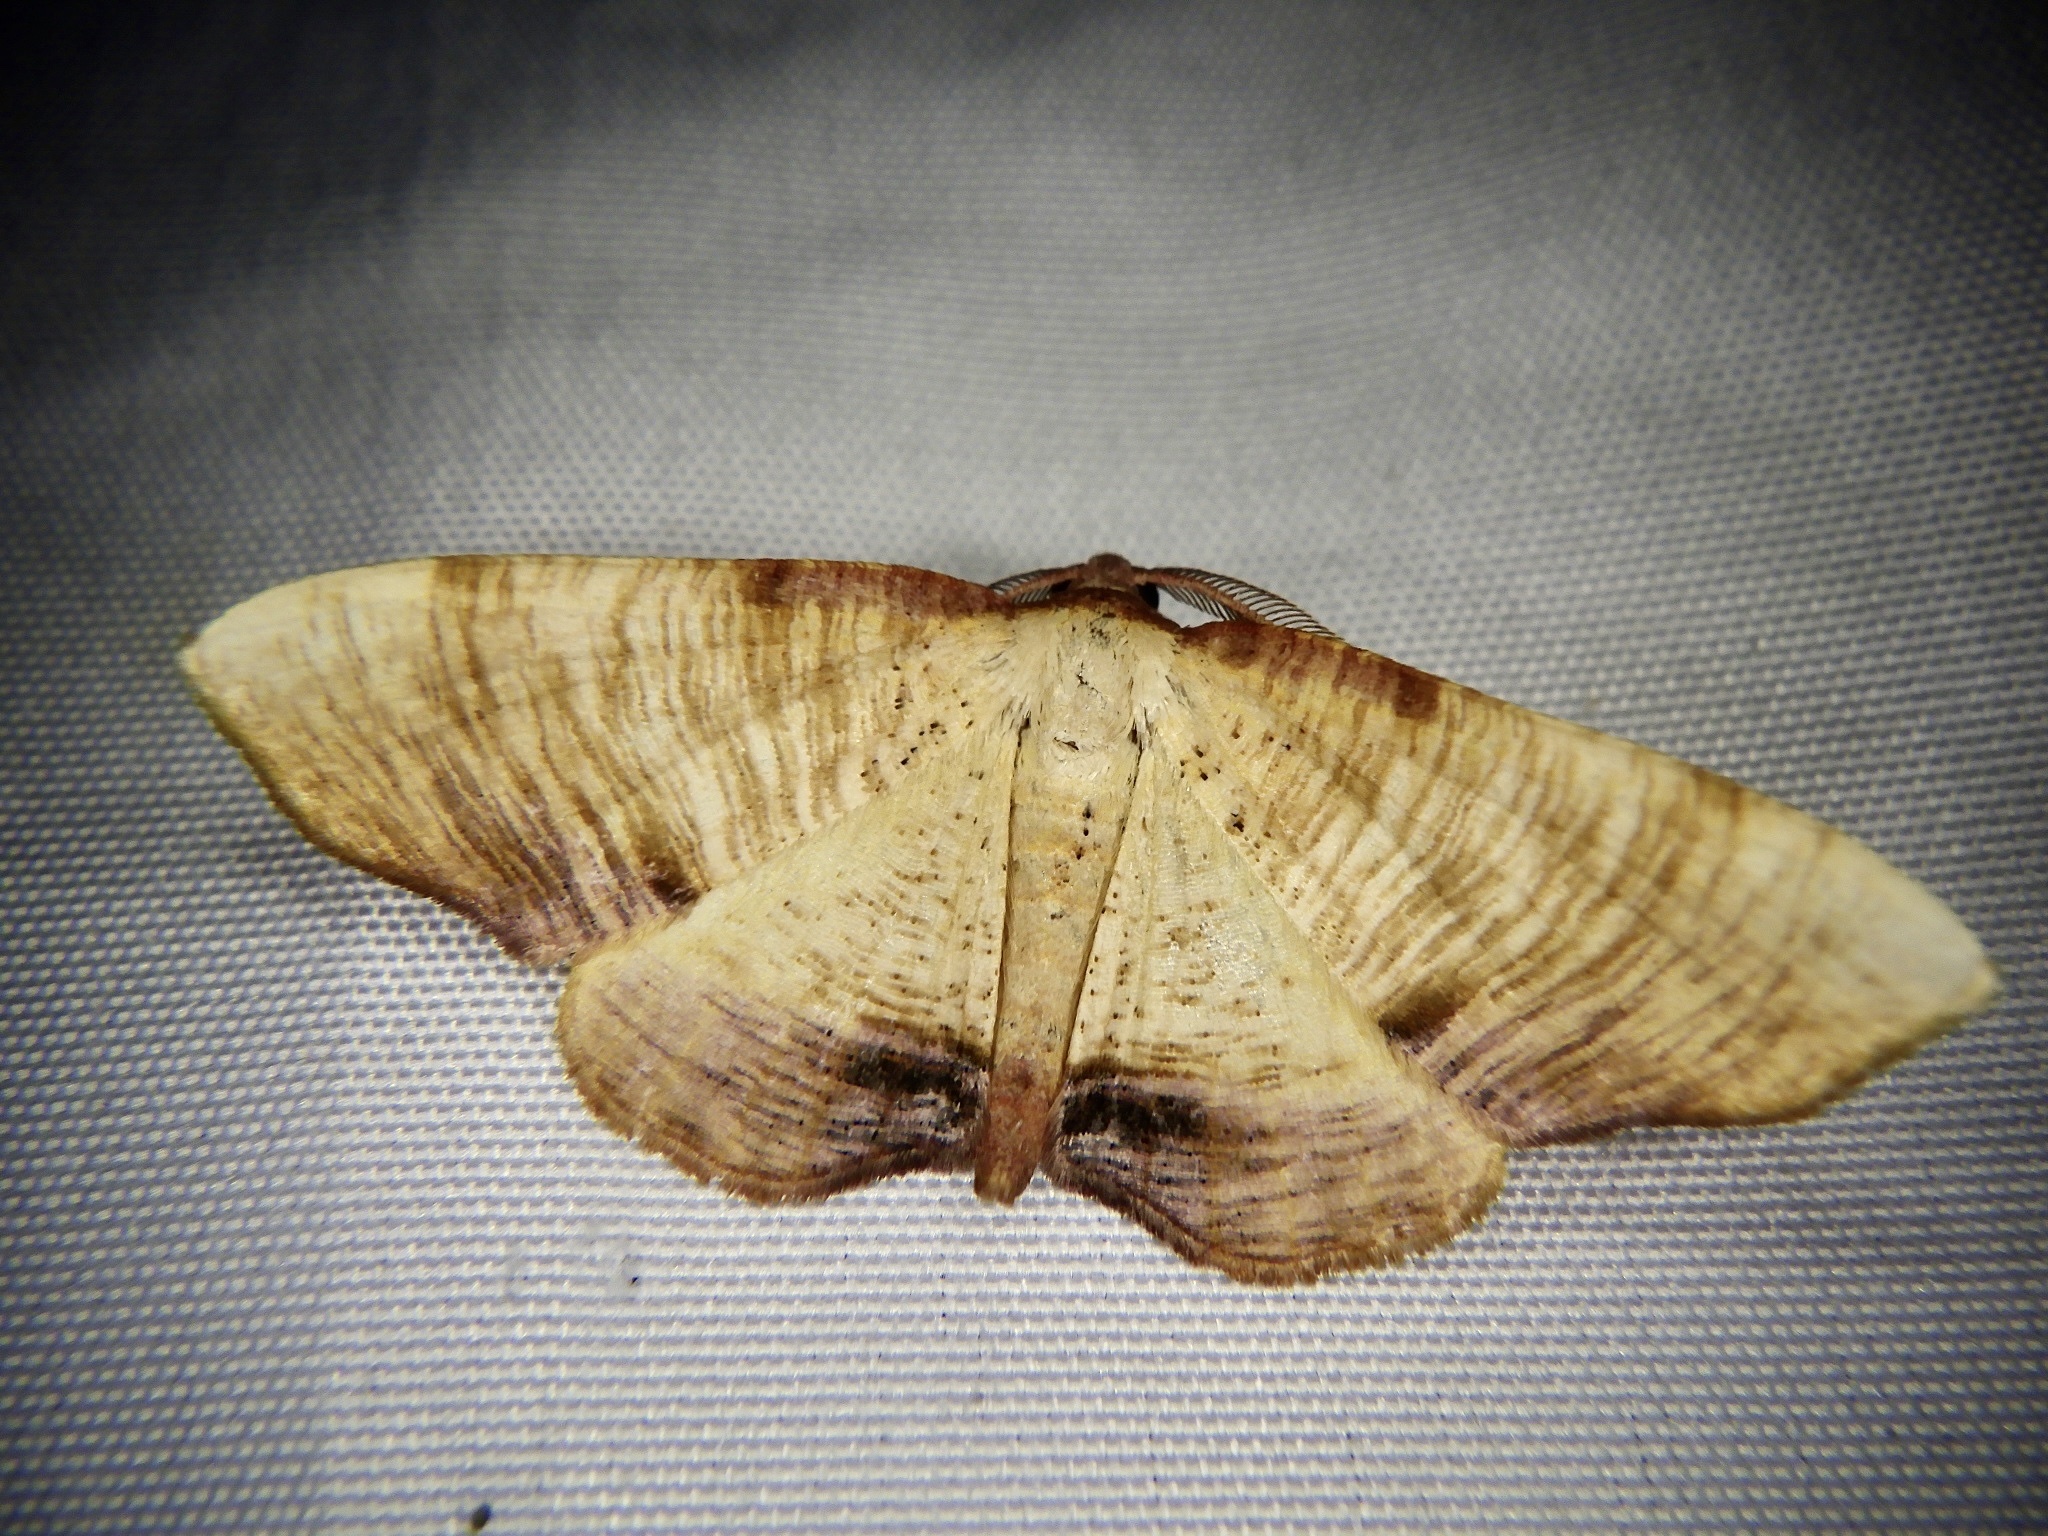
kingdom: Animalia
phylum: Arthropoda
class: Insecta
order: Lepidoptera
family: Geometridae
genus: Plagodis
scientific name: Plagodis dolabraria
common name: Scorched wing
